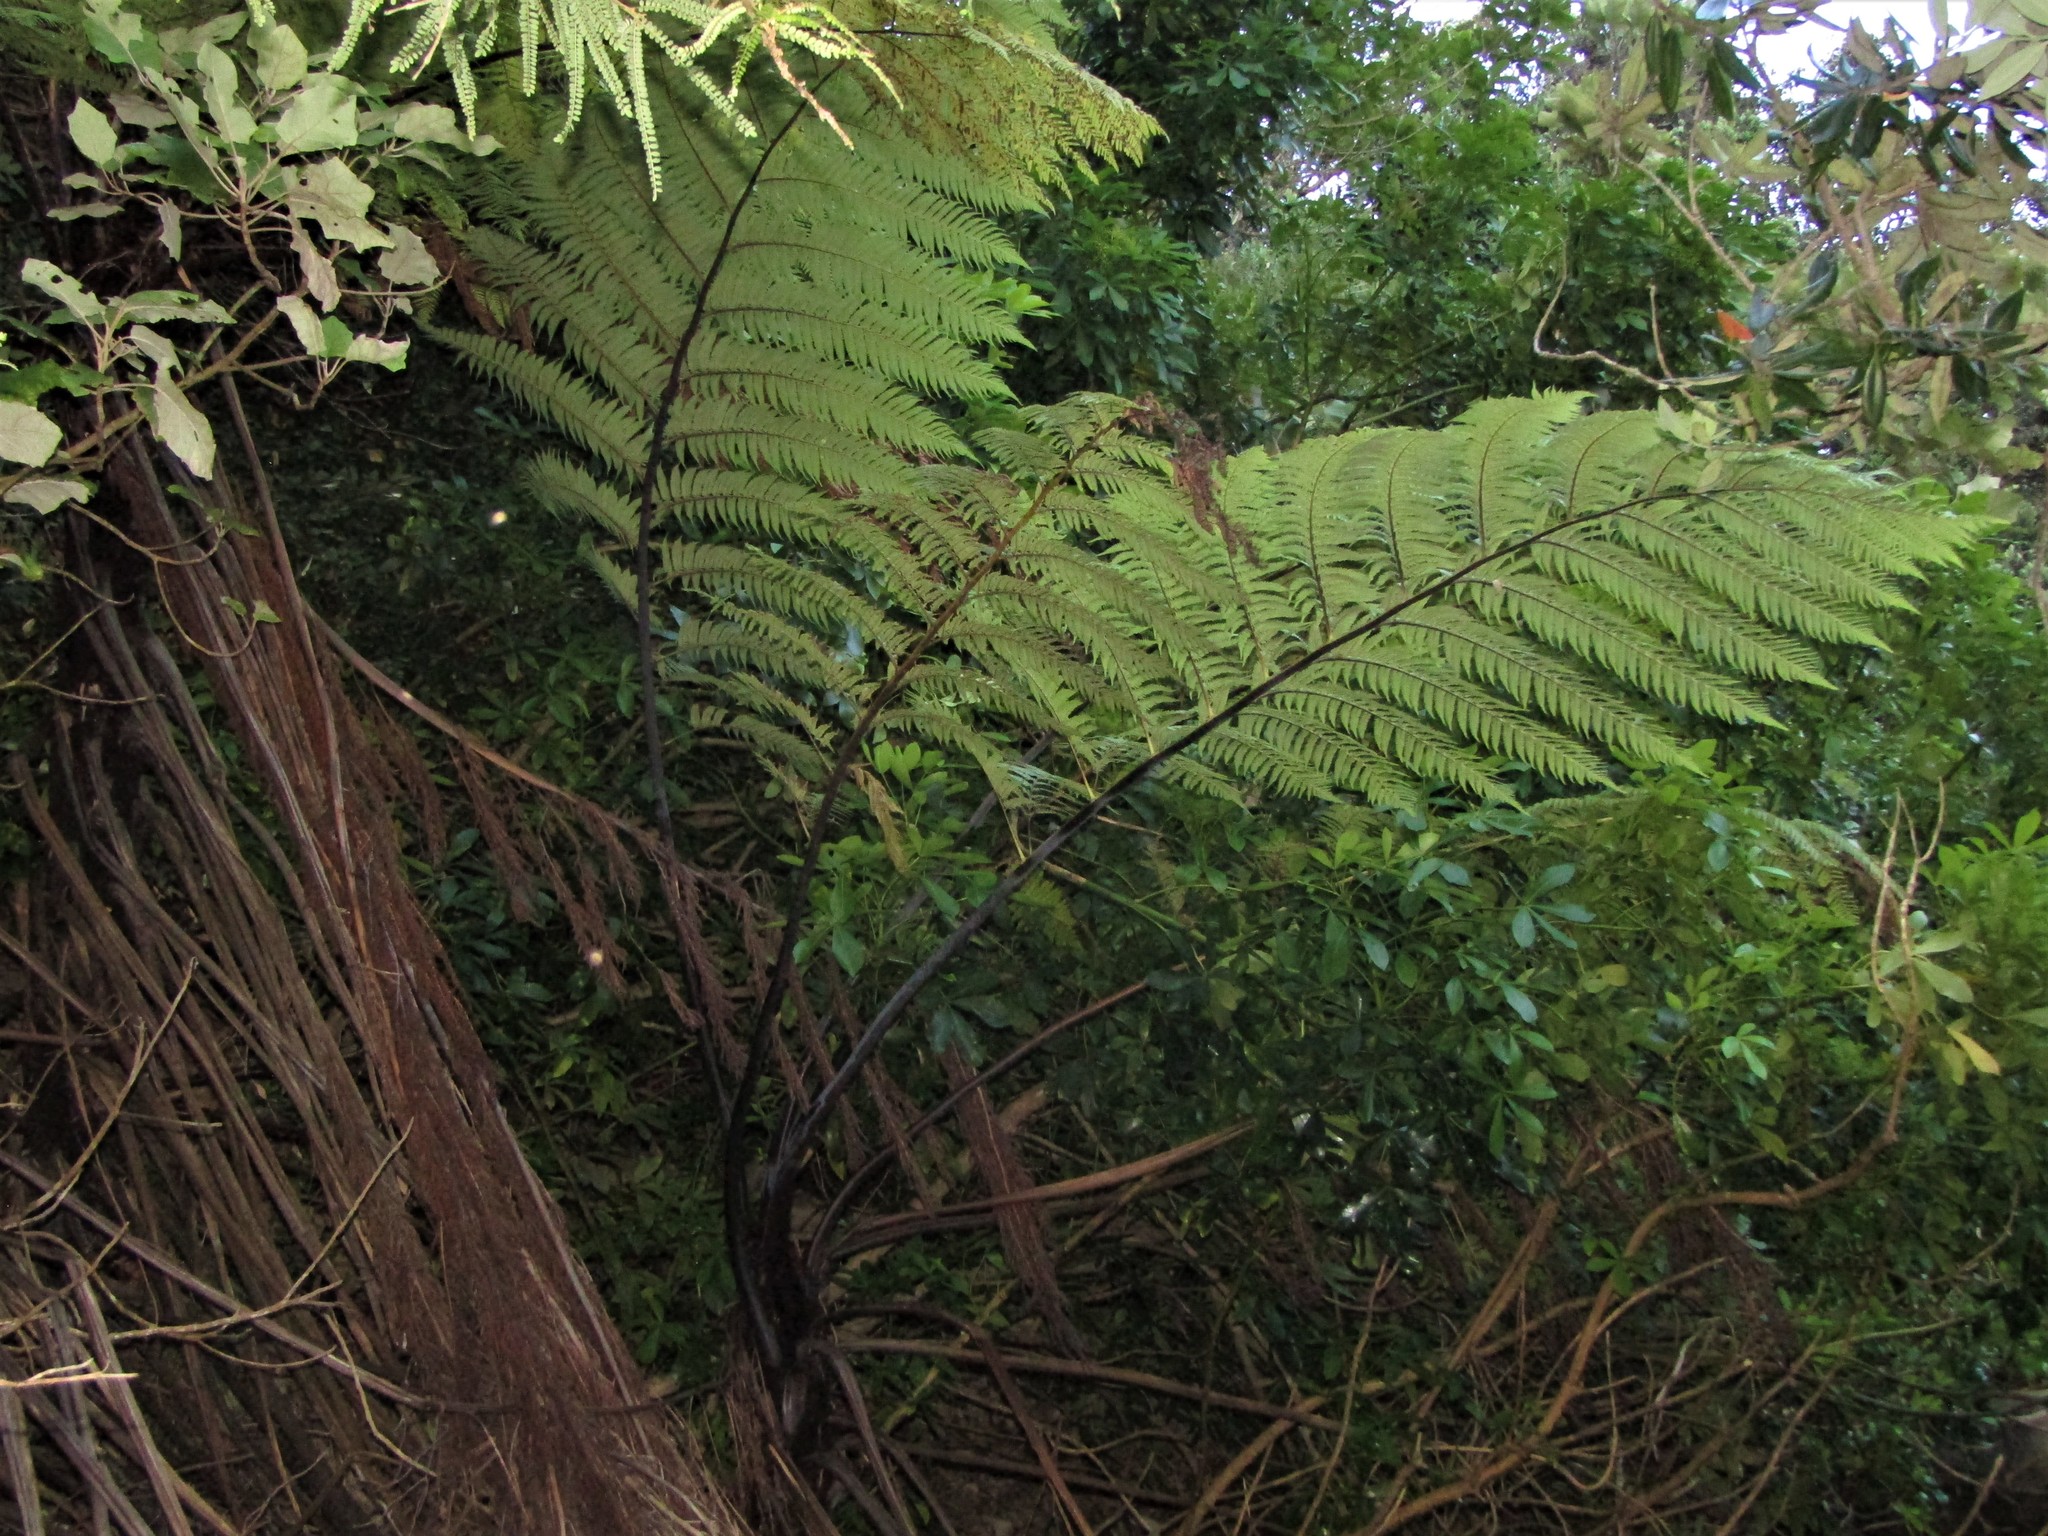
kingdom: Plantae
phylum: Tracheophyta
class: Polypodiopsida
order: Cyatheales
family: Cyatheaceae
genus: Sphaeropteris
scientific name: Sphaeropteris medullaris
